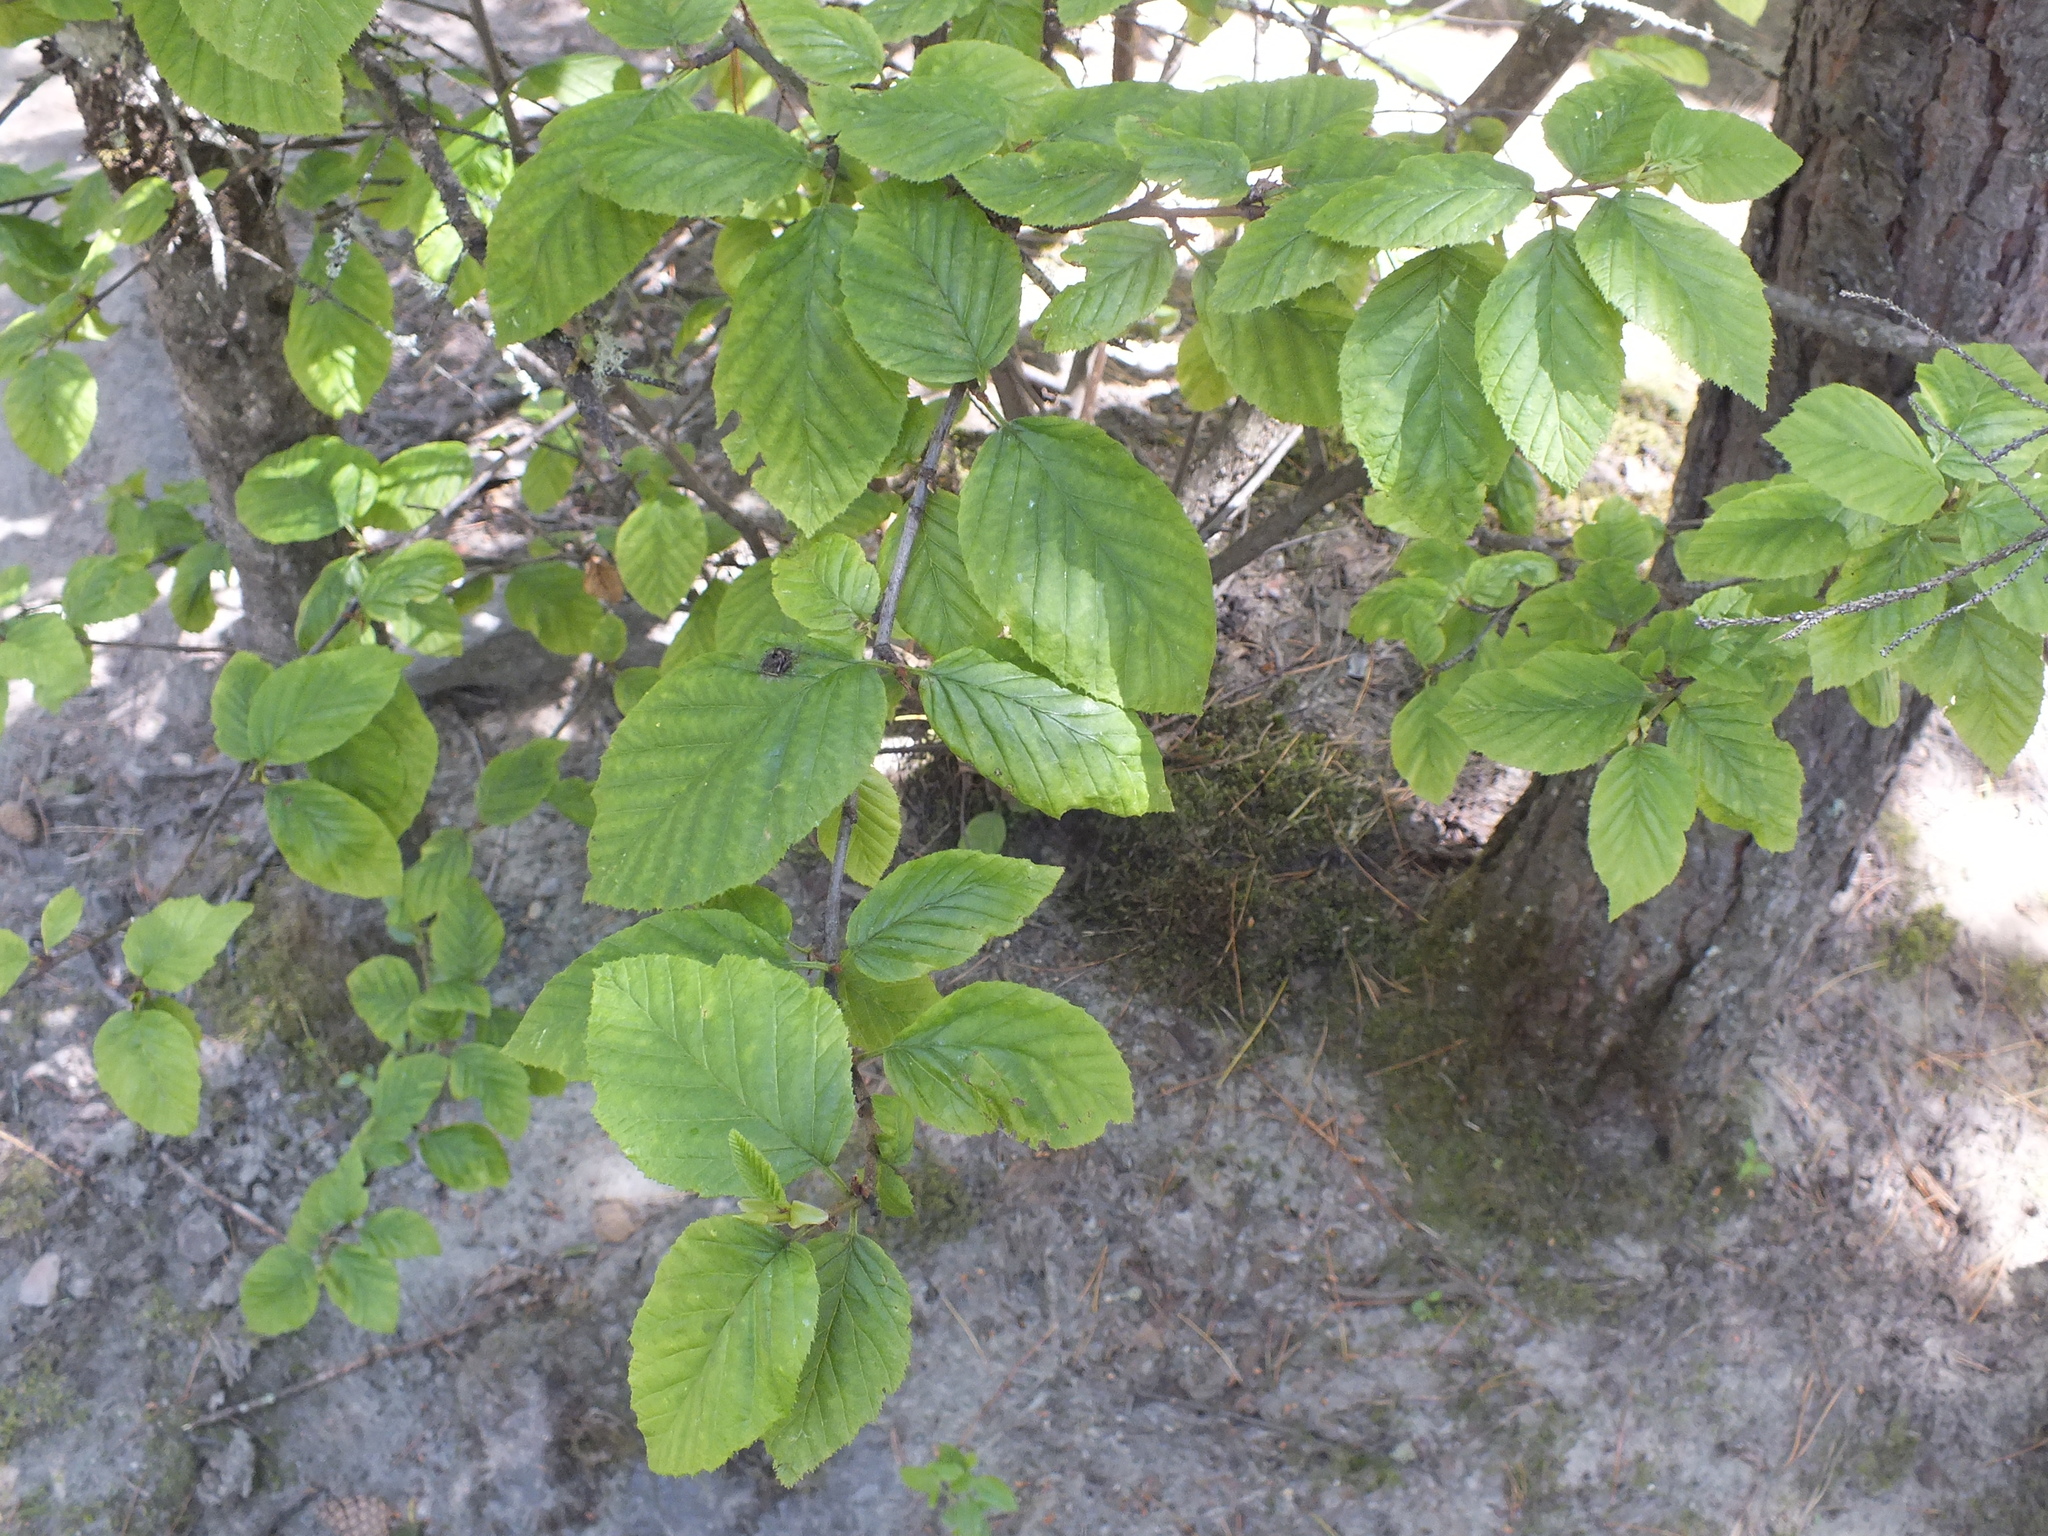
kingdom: Plantae
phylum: Tracheophyta
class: Magnoliopsida
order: Fagales
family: Betulaceae
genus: Alnus
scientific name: Alnus alnobetula
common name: Green alder
